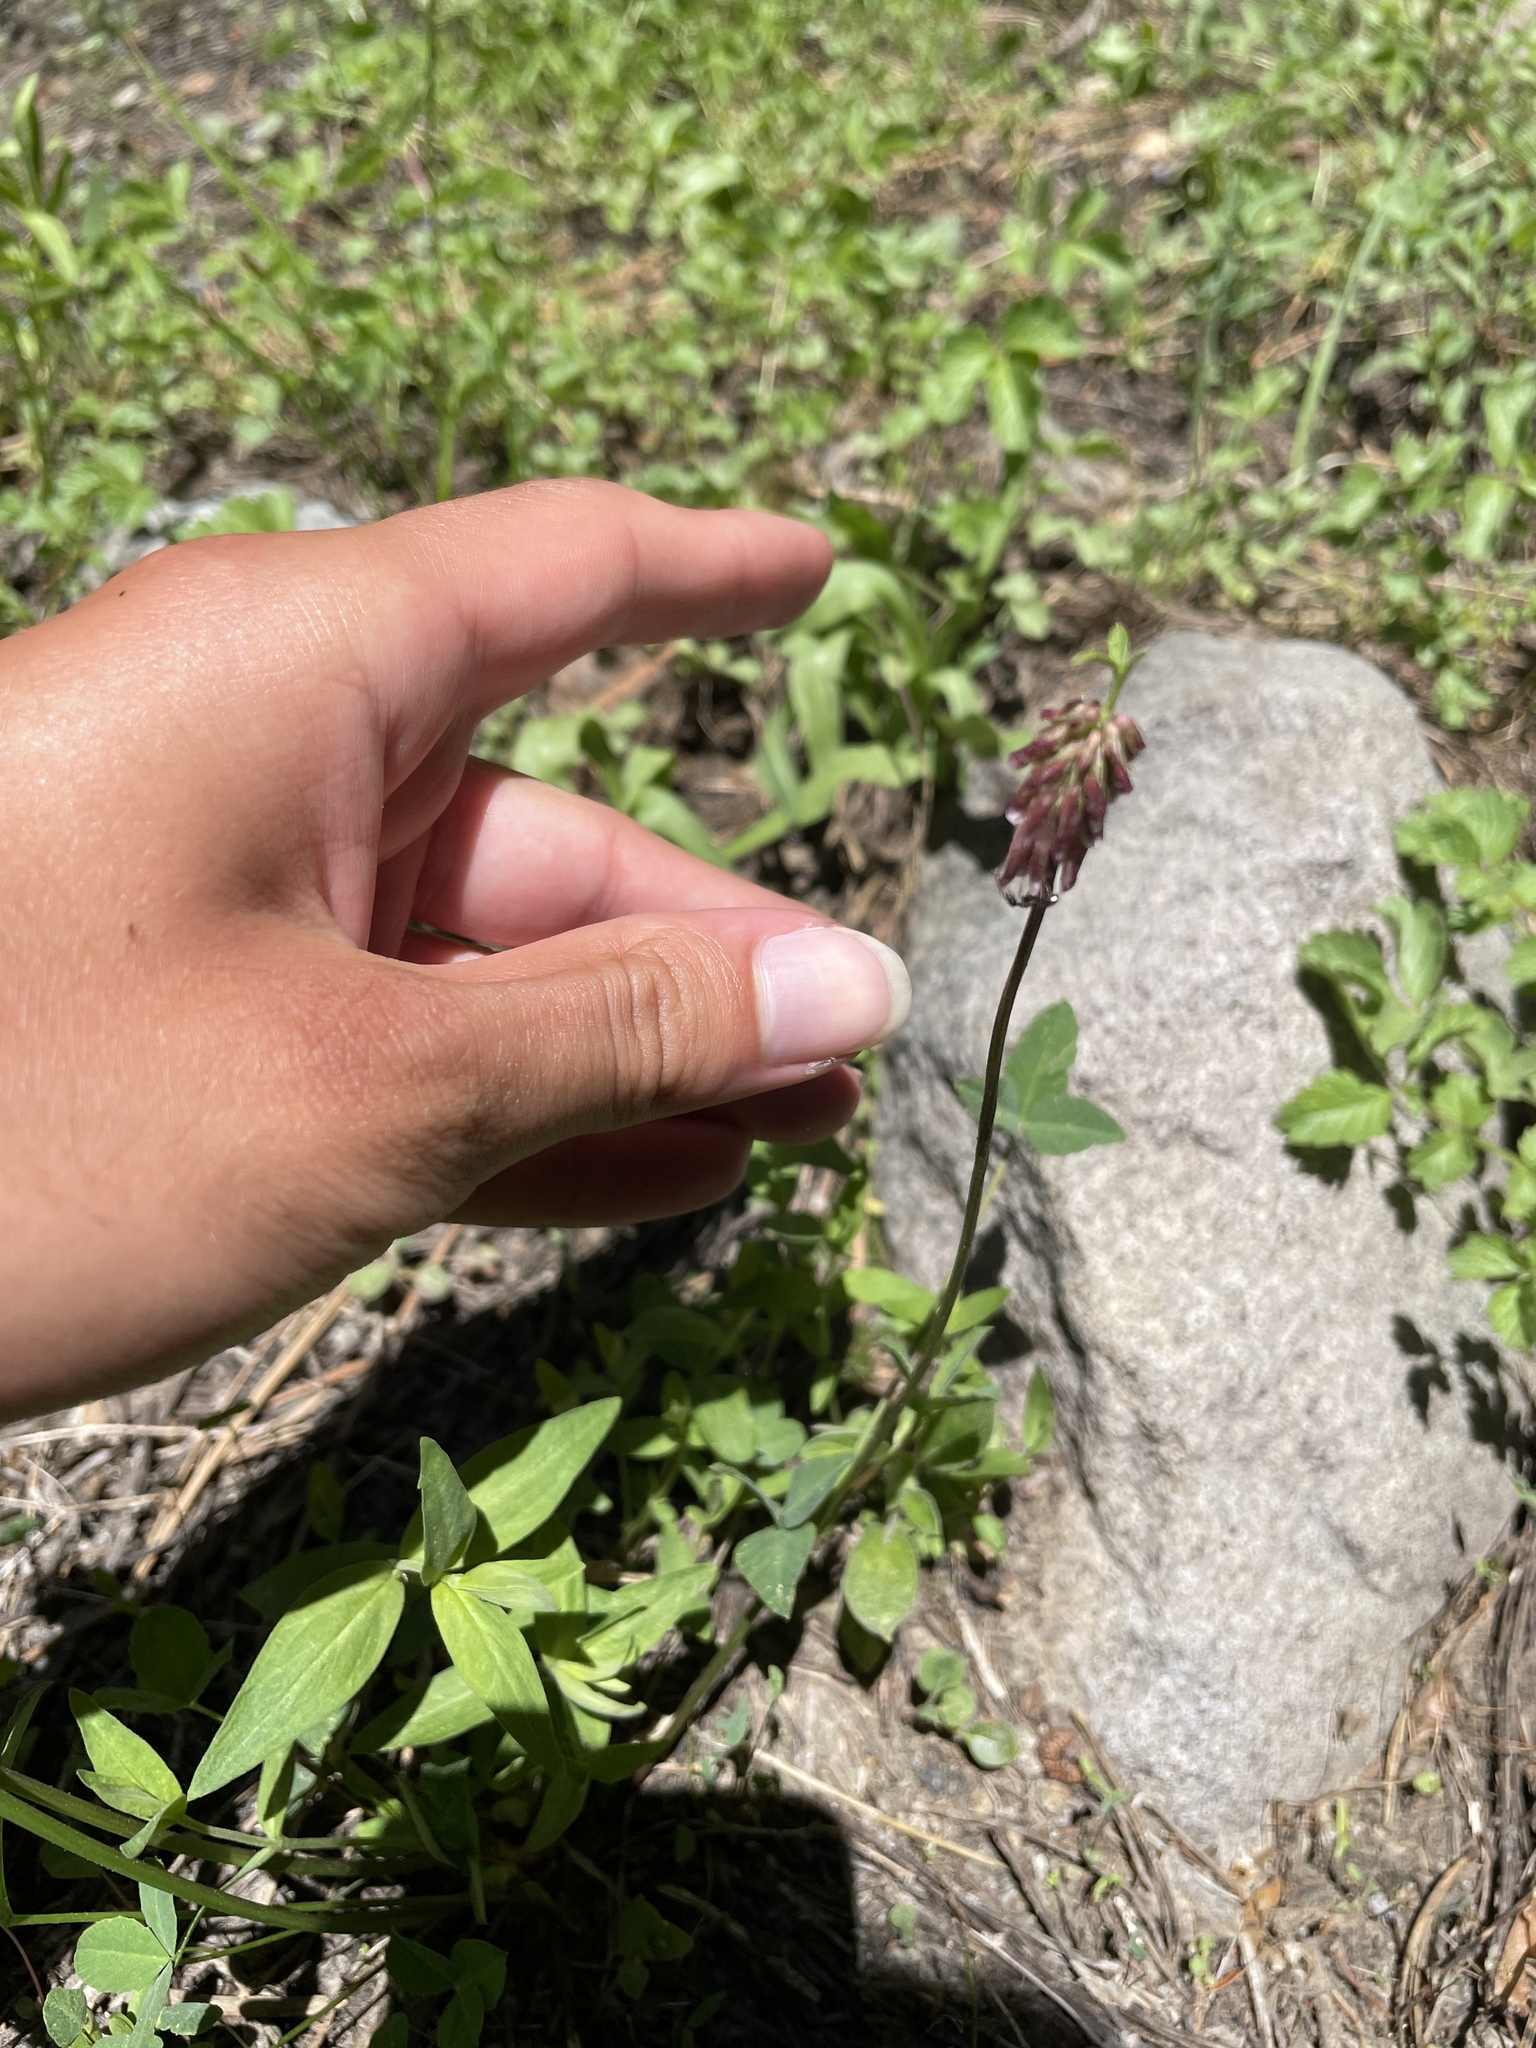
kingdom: Plantae
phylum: Tracheophyta
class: Magnoliopsida
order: Fabales
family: Fabaceae
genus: Trifolium
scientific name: Trifolium productum
